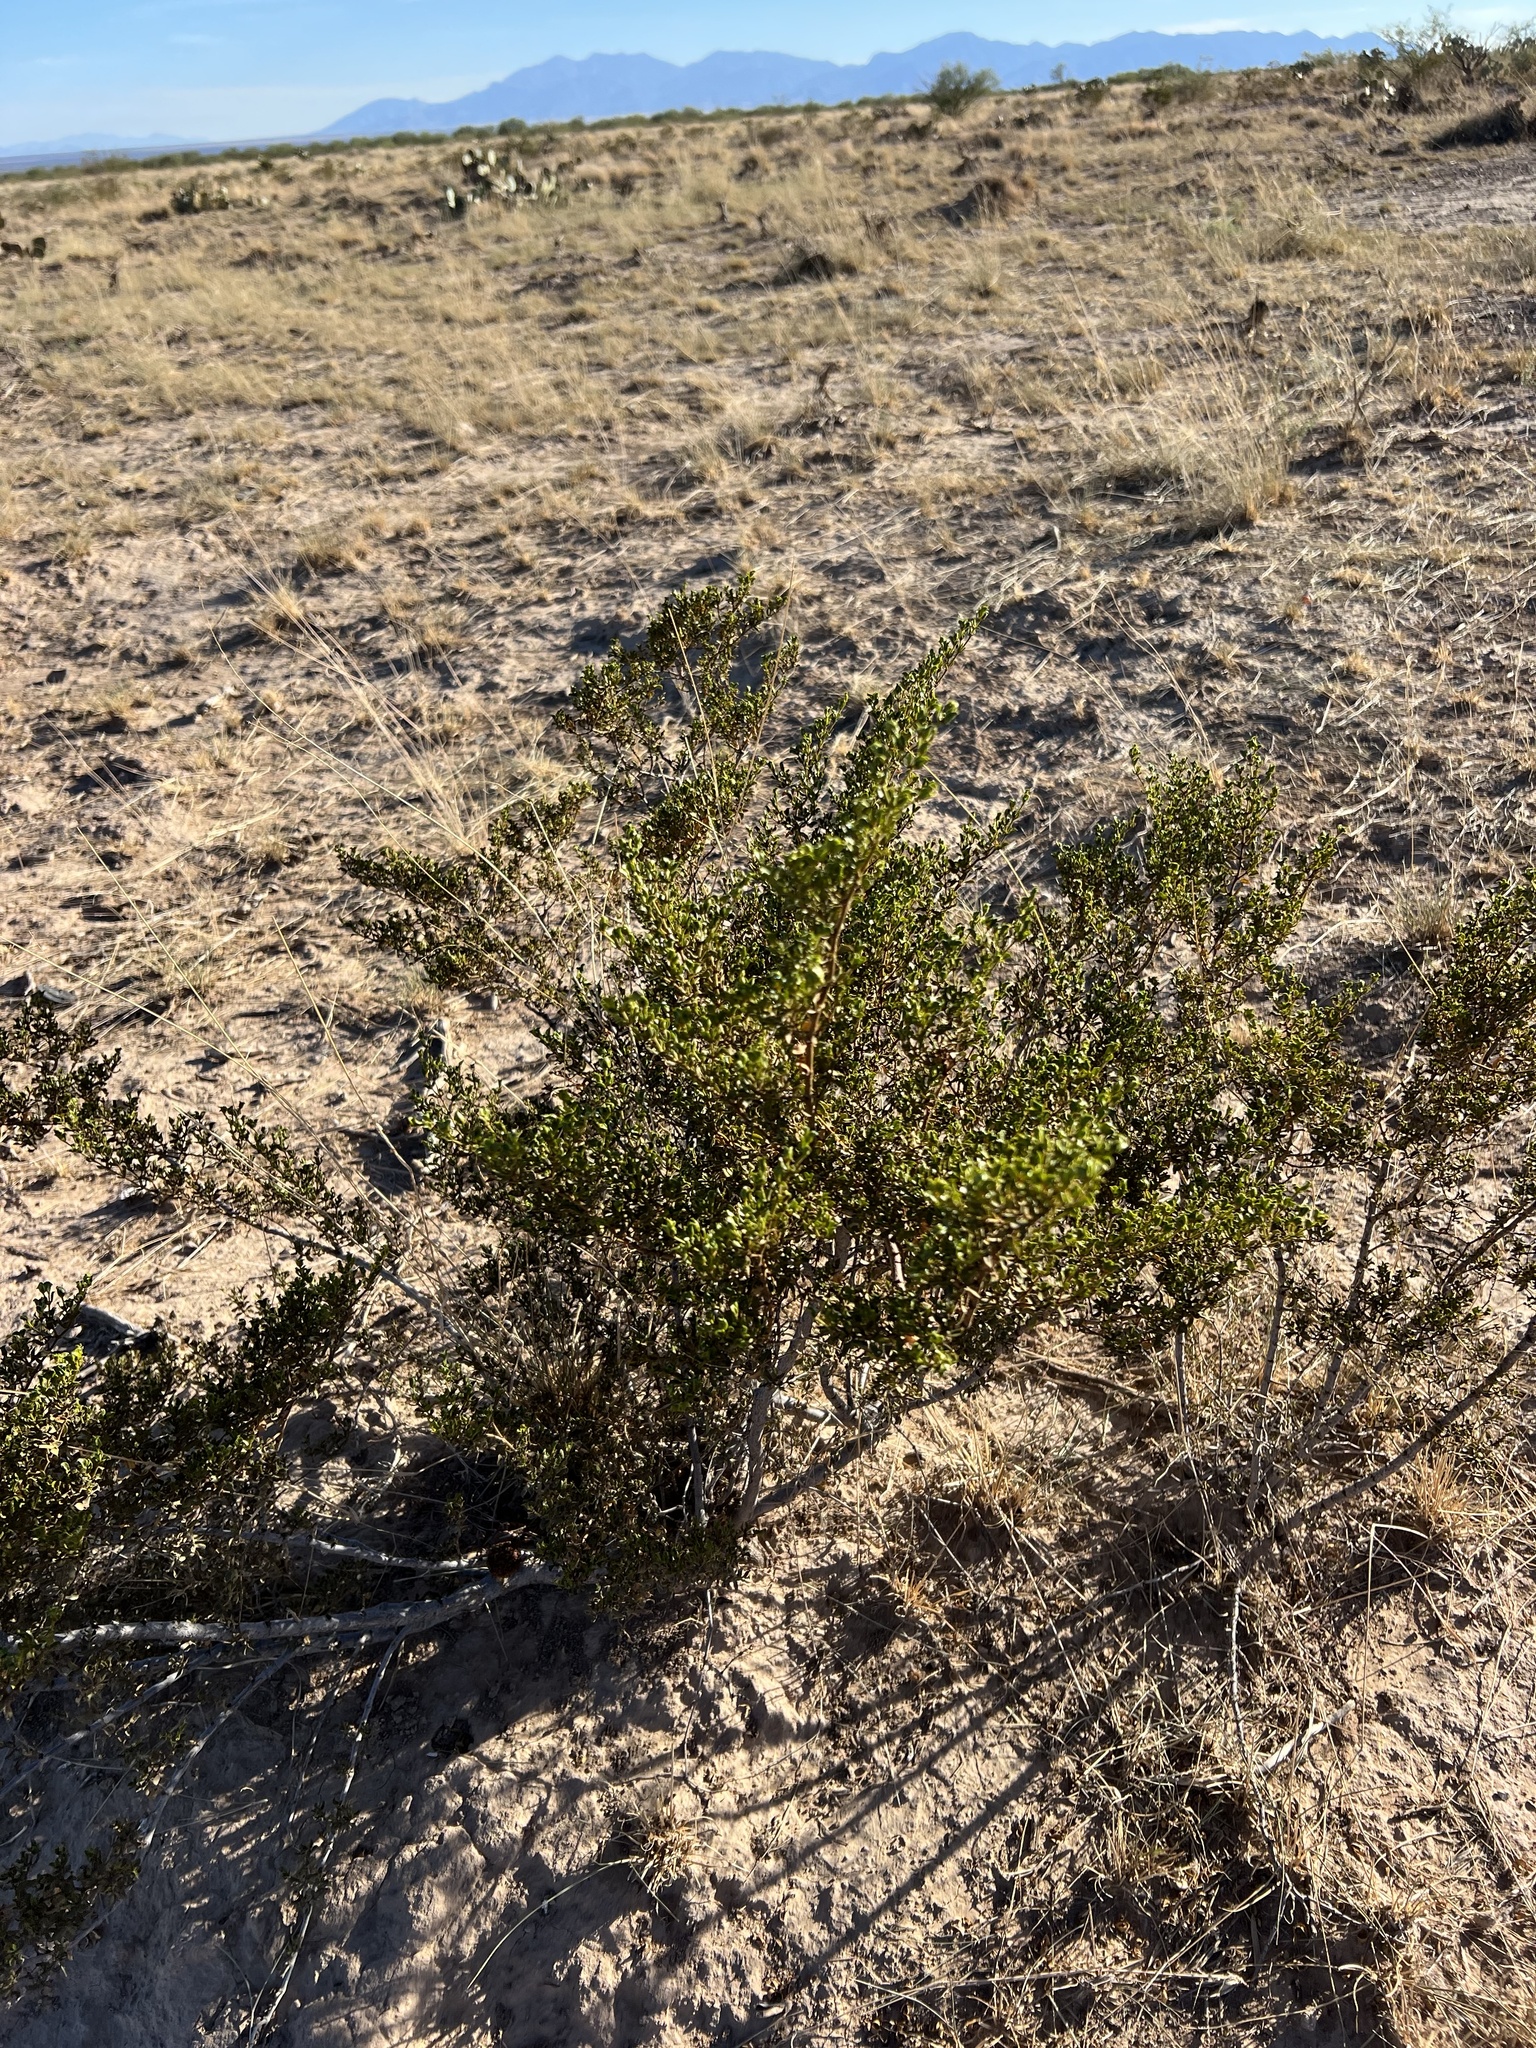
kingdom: Plantae
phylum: Tracheophyta
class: Magnoliopsida
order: Zygophyllales
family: Zygophyllaceae
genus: Larrea
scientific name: Larrea tridentata
